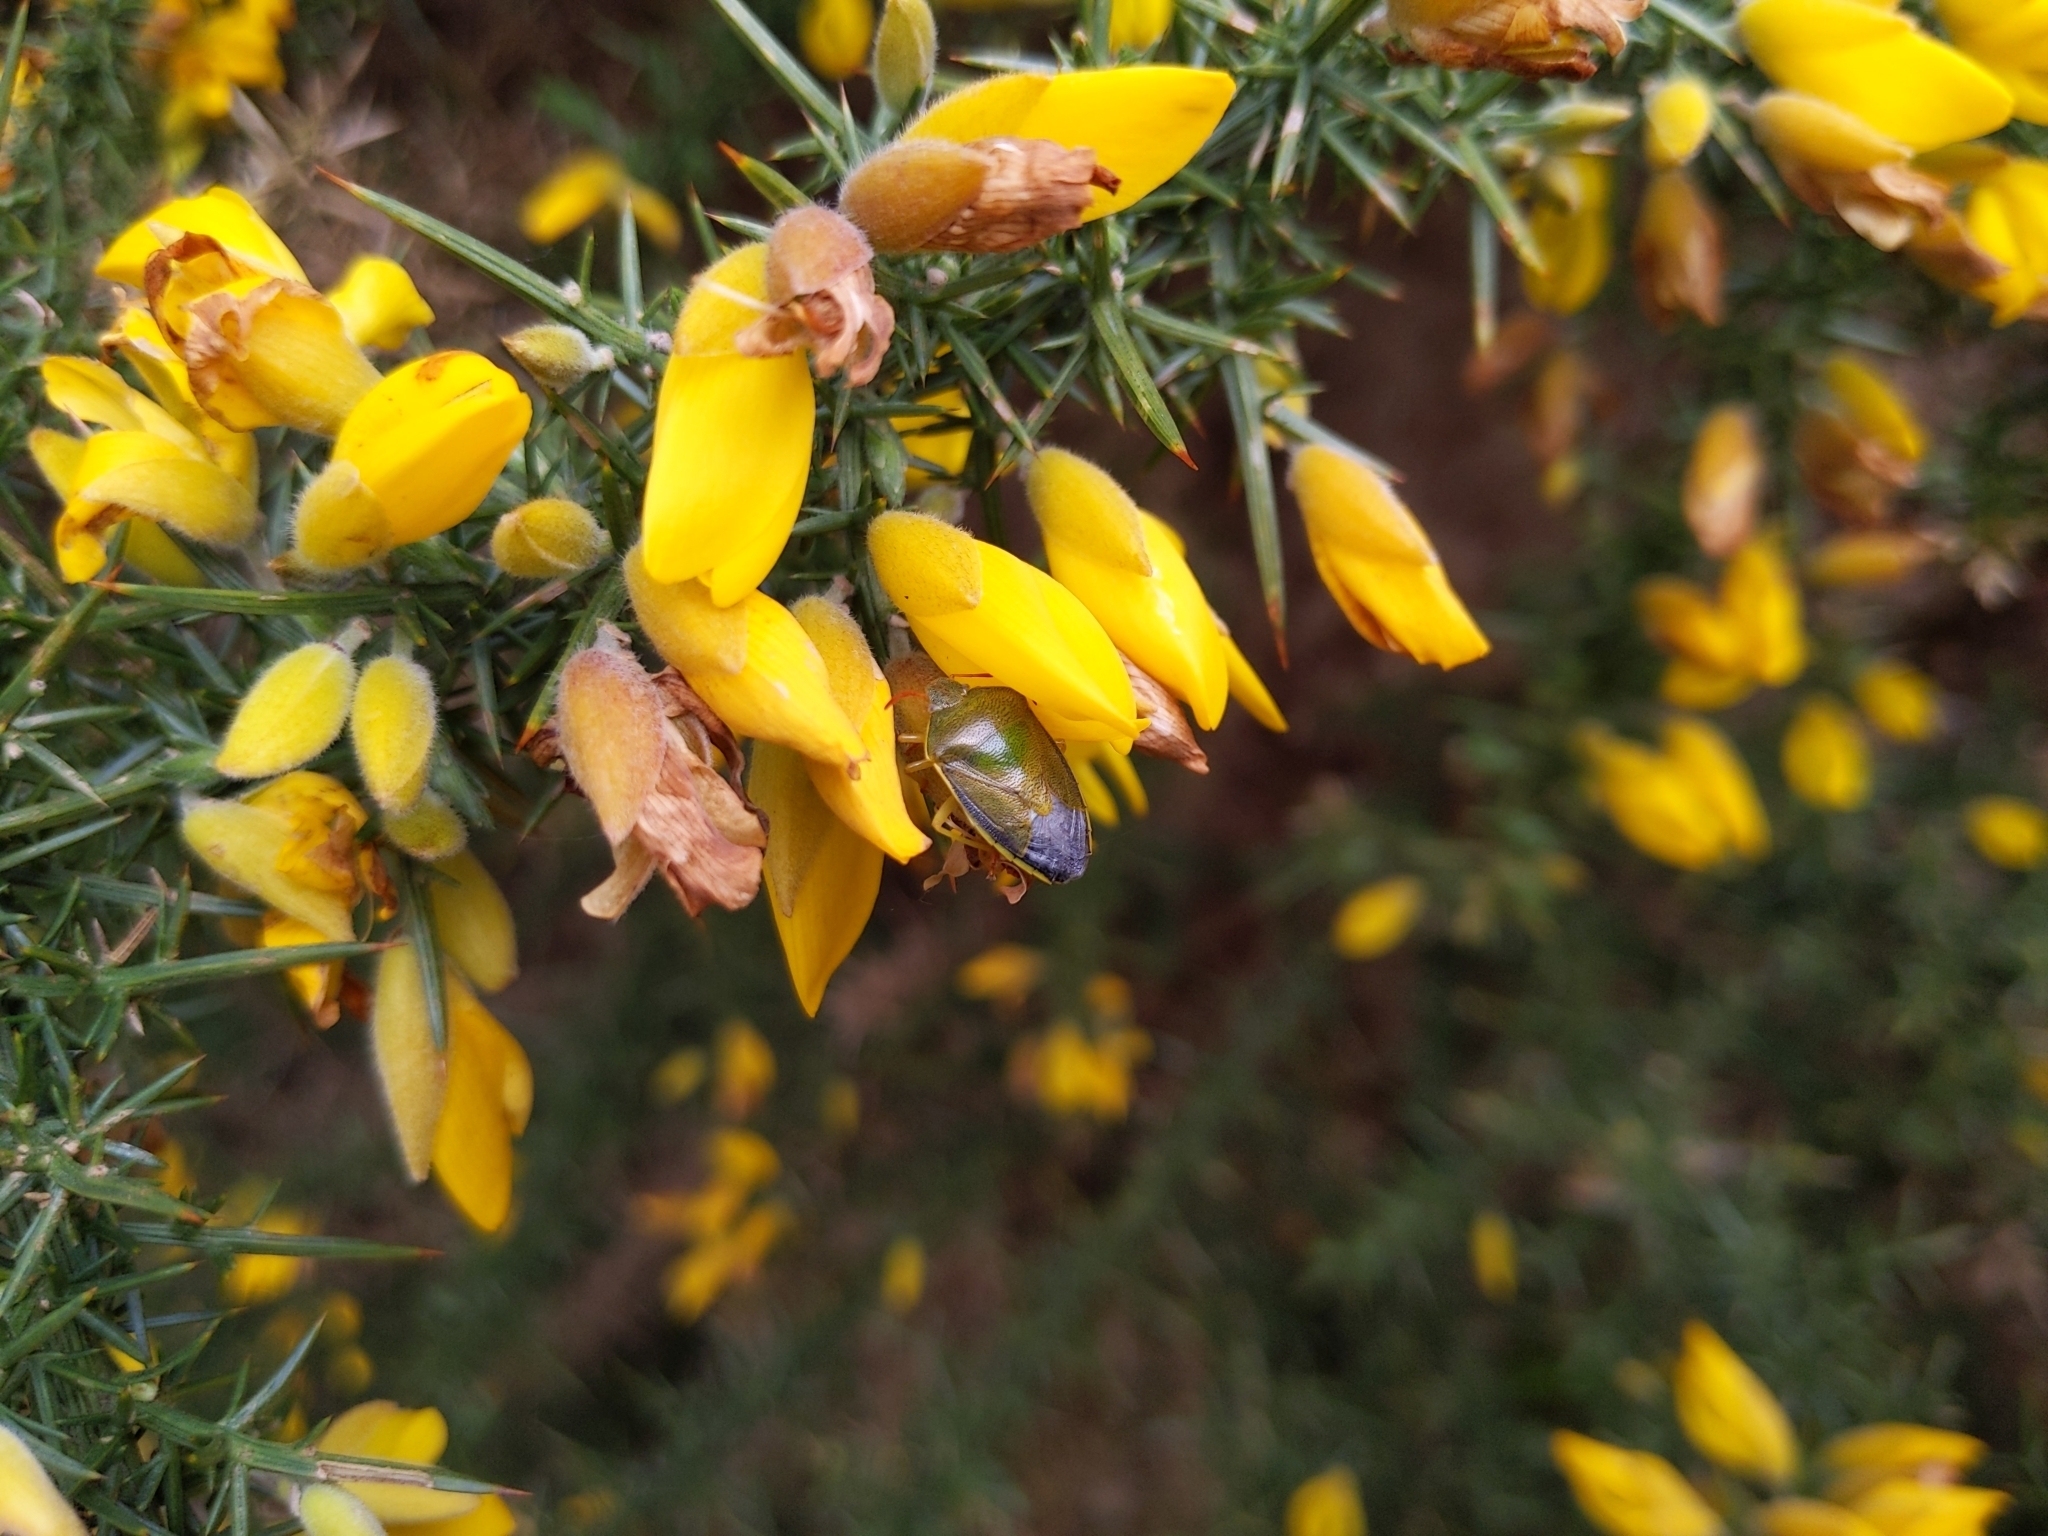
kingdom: Animalia
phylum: Arthropoda
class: Insecta
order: Hemiptera
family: Pentatomidae
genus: Piezodorus
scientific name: Piezodorus lituratus
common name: Stink bug
